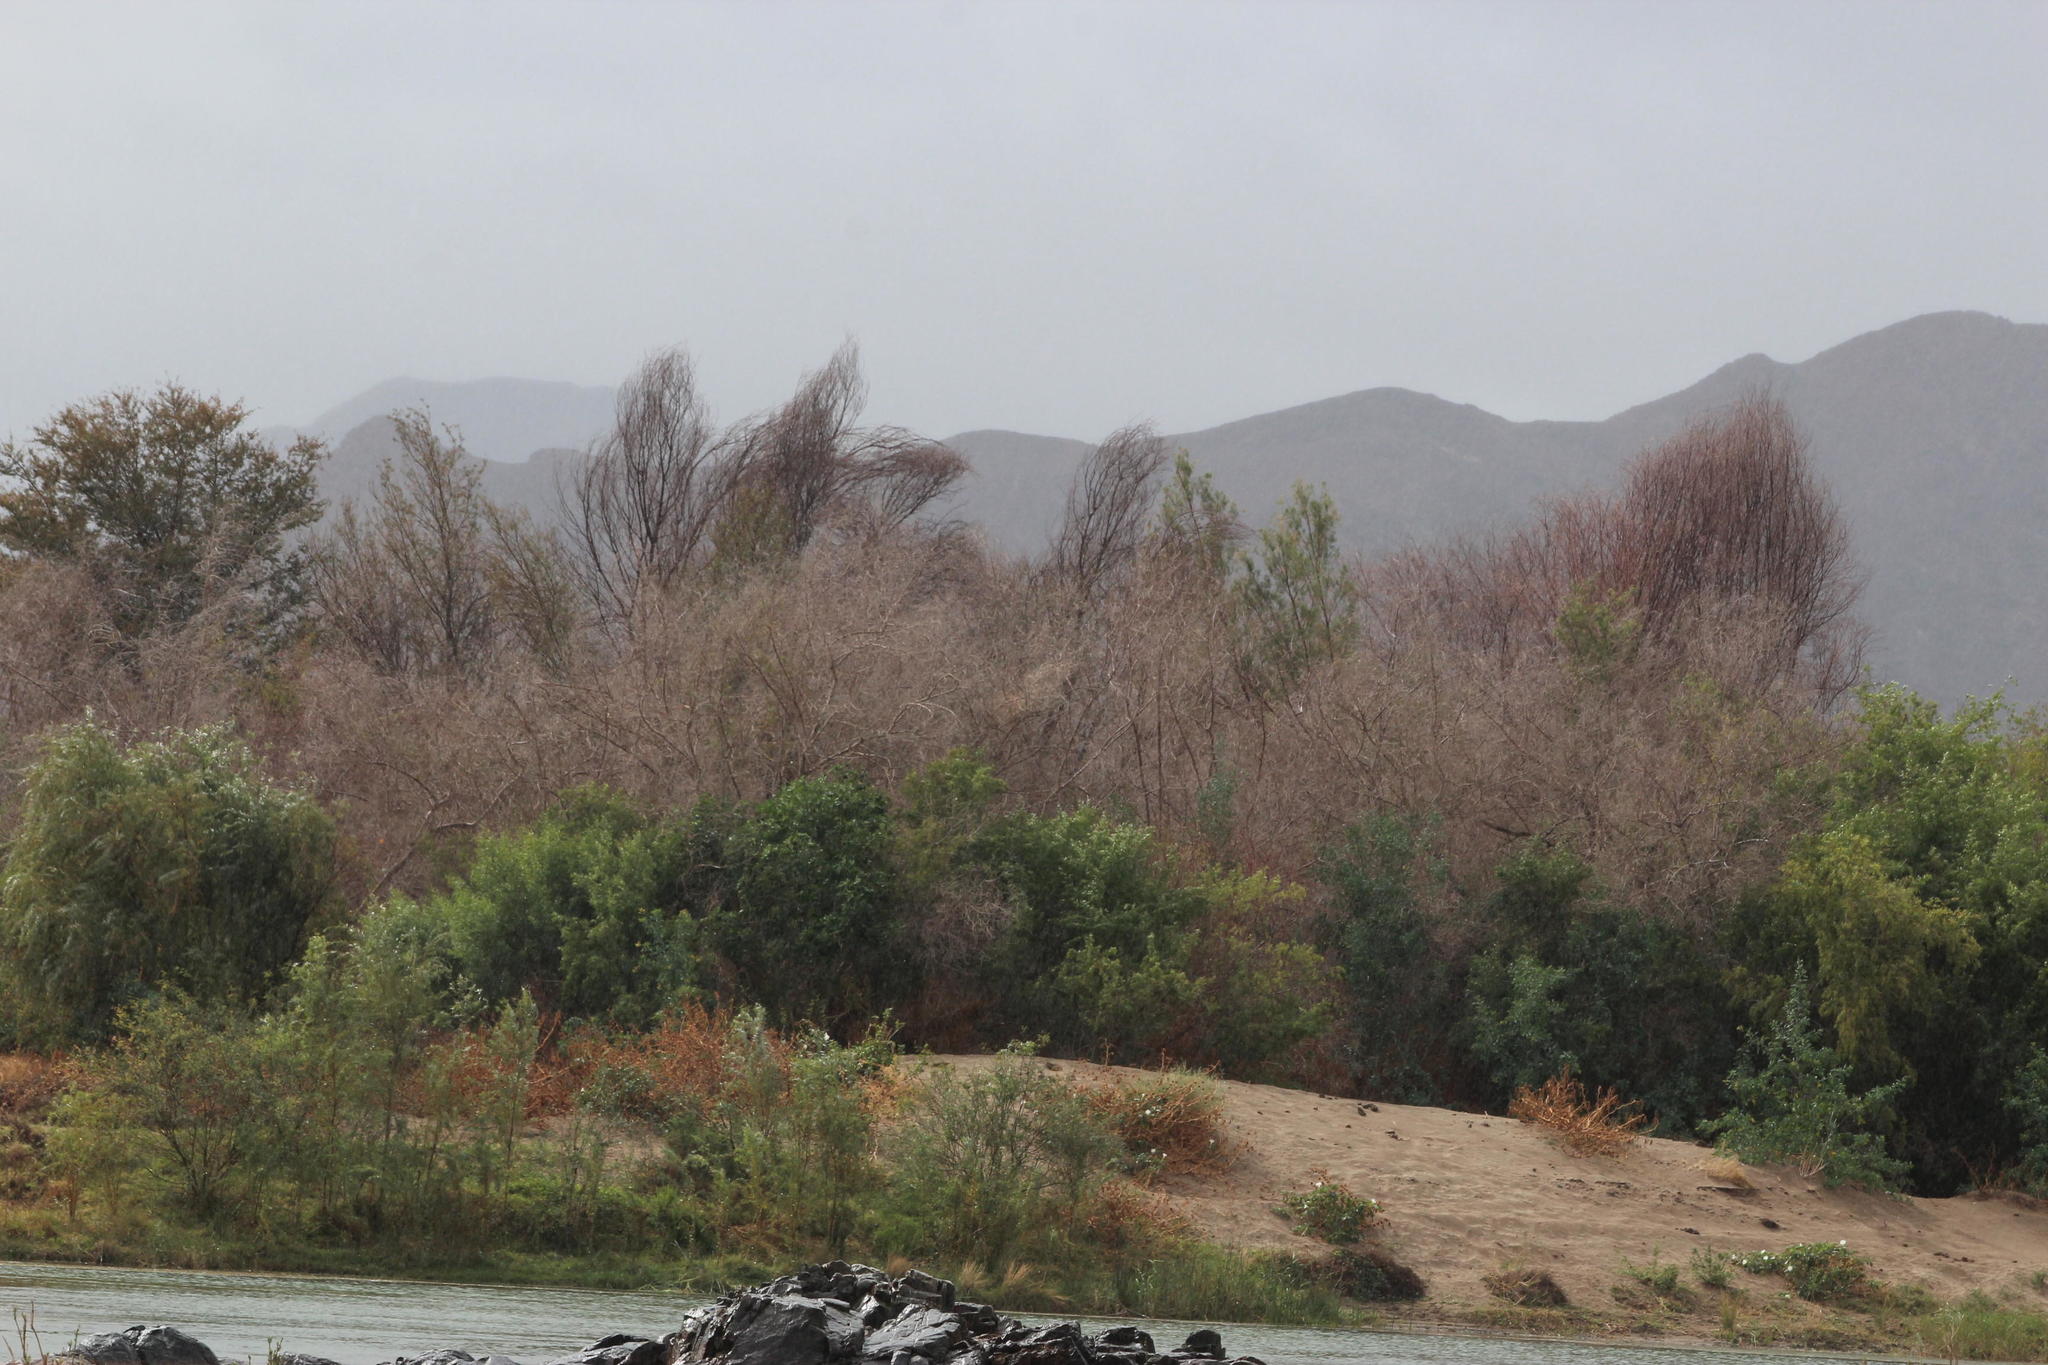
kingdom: Plantae
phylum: Tracheophyta
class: Magnoliopsida
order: Fabales
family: Fabaceae
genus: Prosopis
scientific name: Prosopis glandulosa
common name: Honey mesquite
